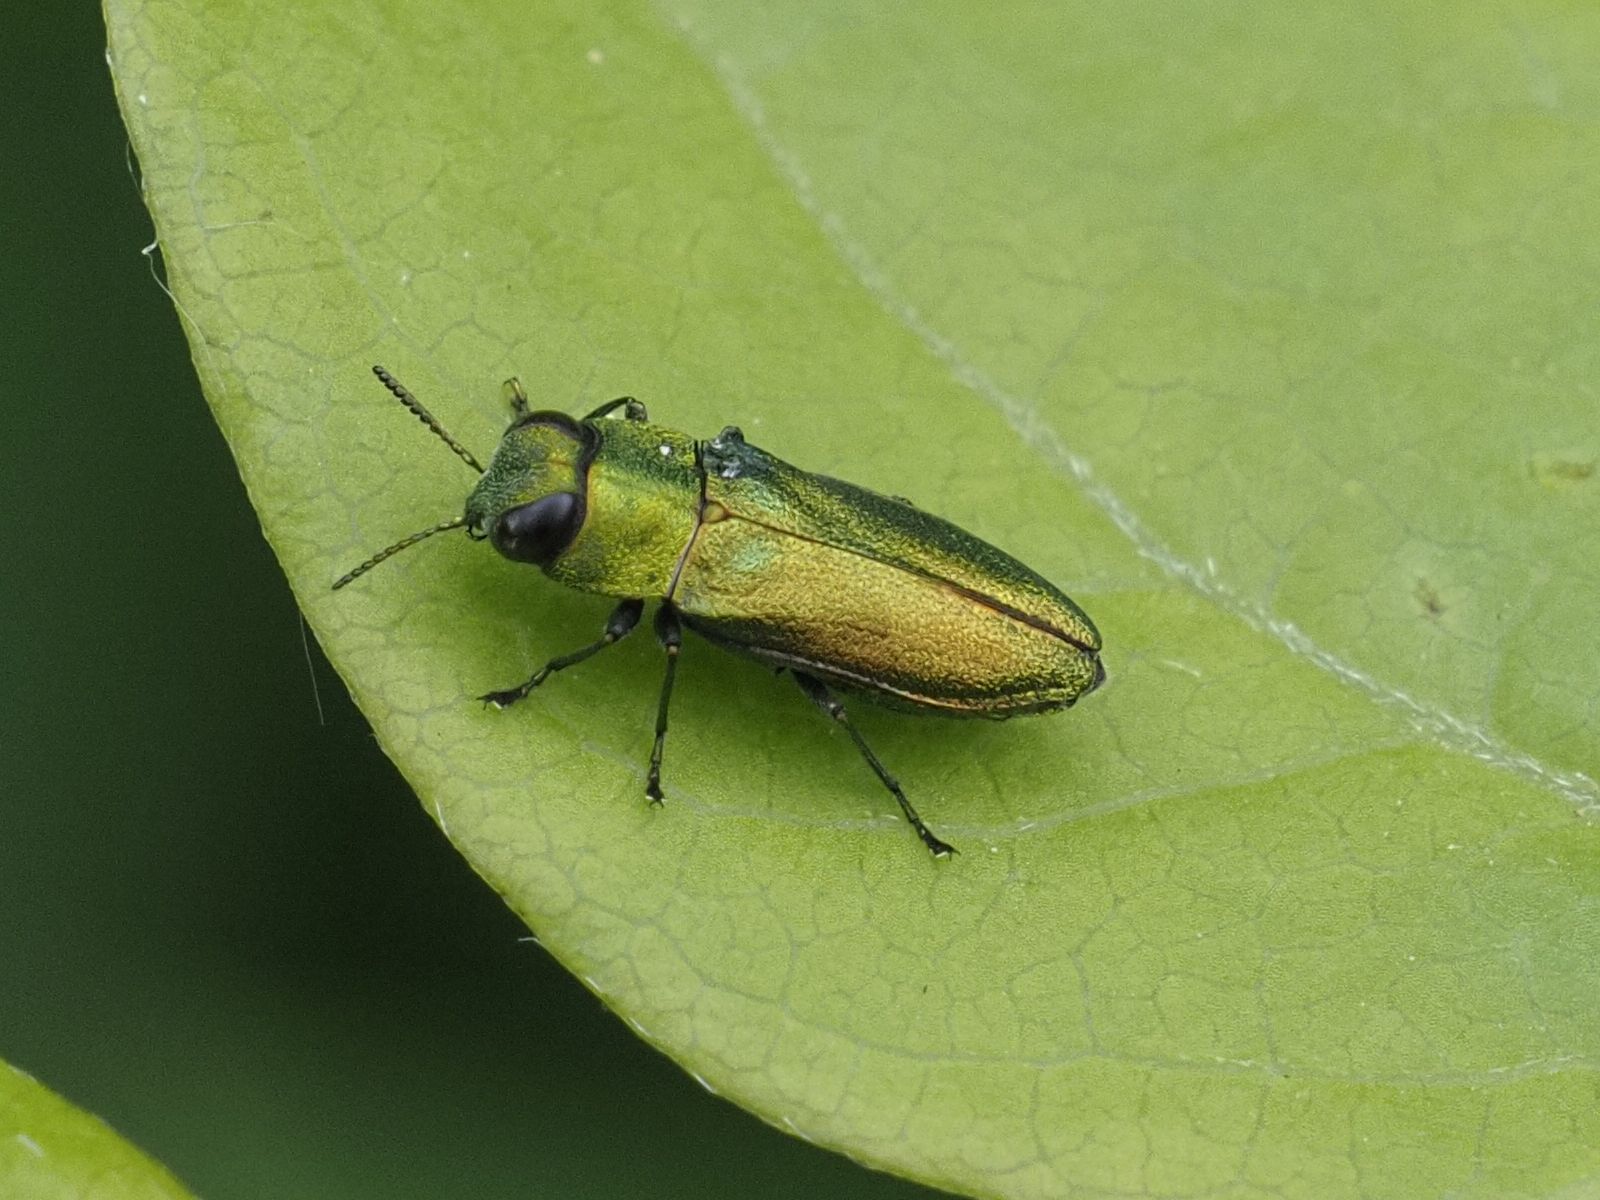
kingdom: Animalia
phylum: Arthropoda
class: Insecta
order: Coleoptera
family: Buprestidae
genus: Anthaxia
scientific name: Anthaxia nitidula
